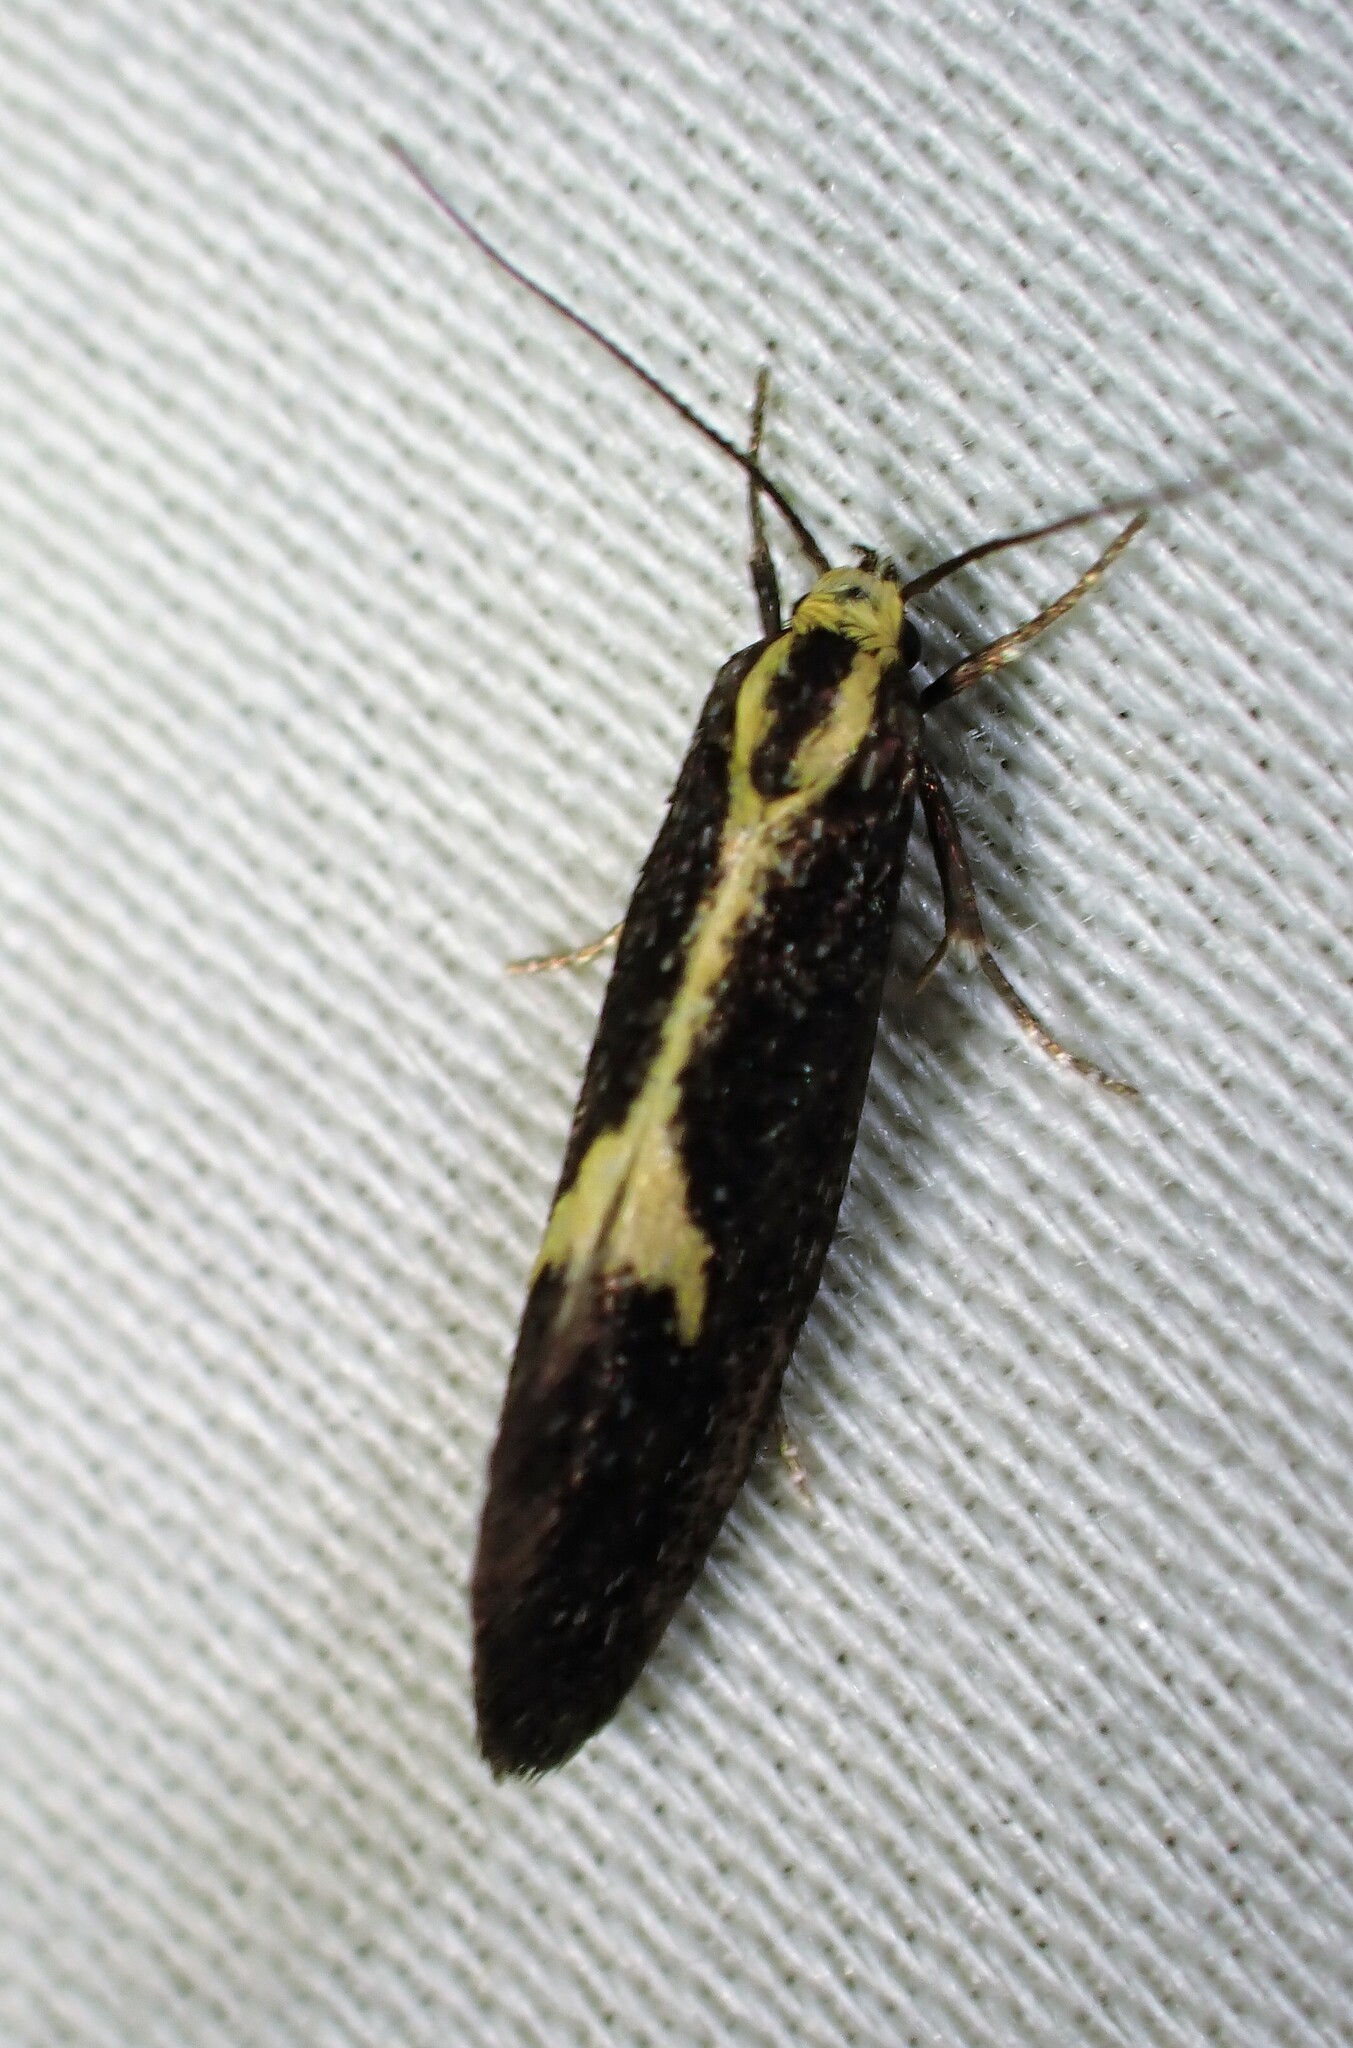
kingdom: Animalia
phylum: Arthropoda
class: Insecta
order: Lepidoptera
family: Oecophoridae
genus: Polix
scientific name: Polix coloradella
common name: Skunk moth
